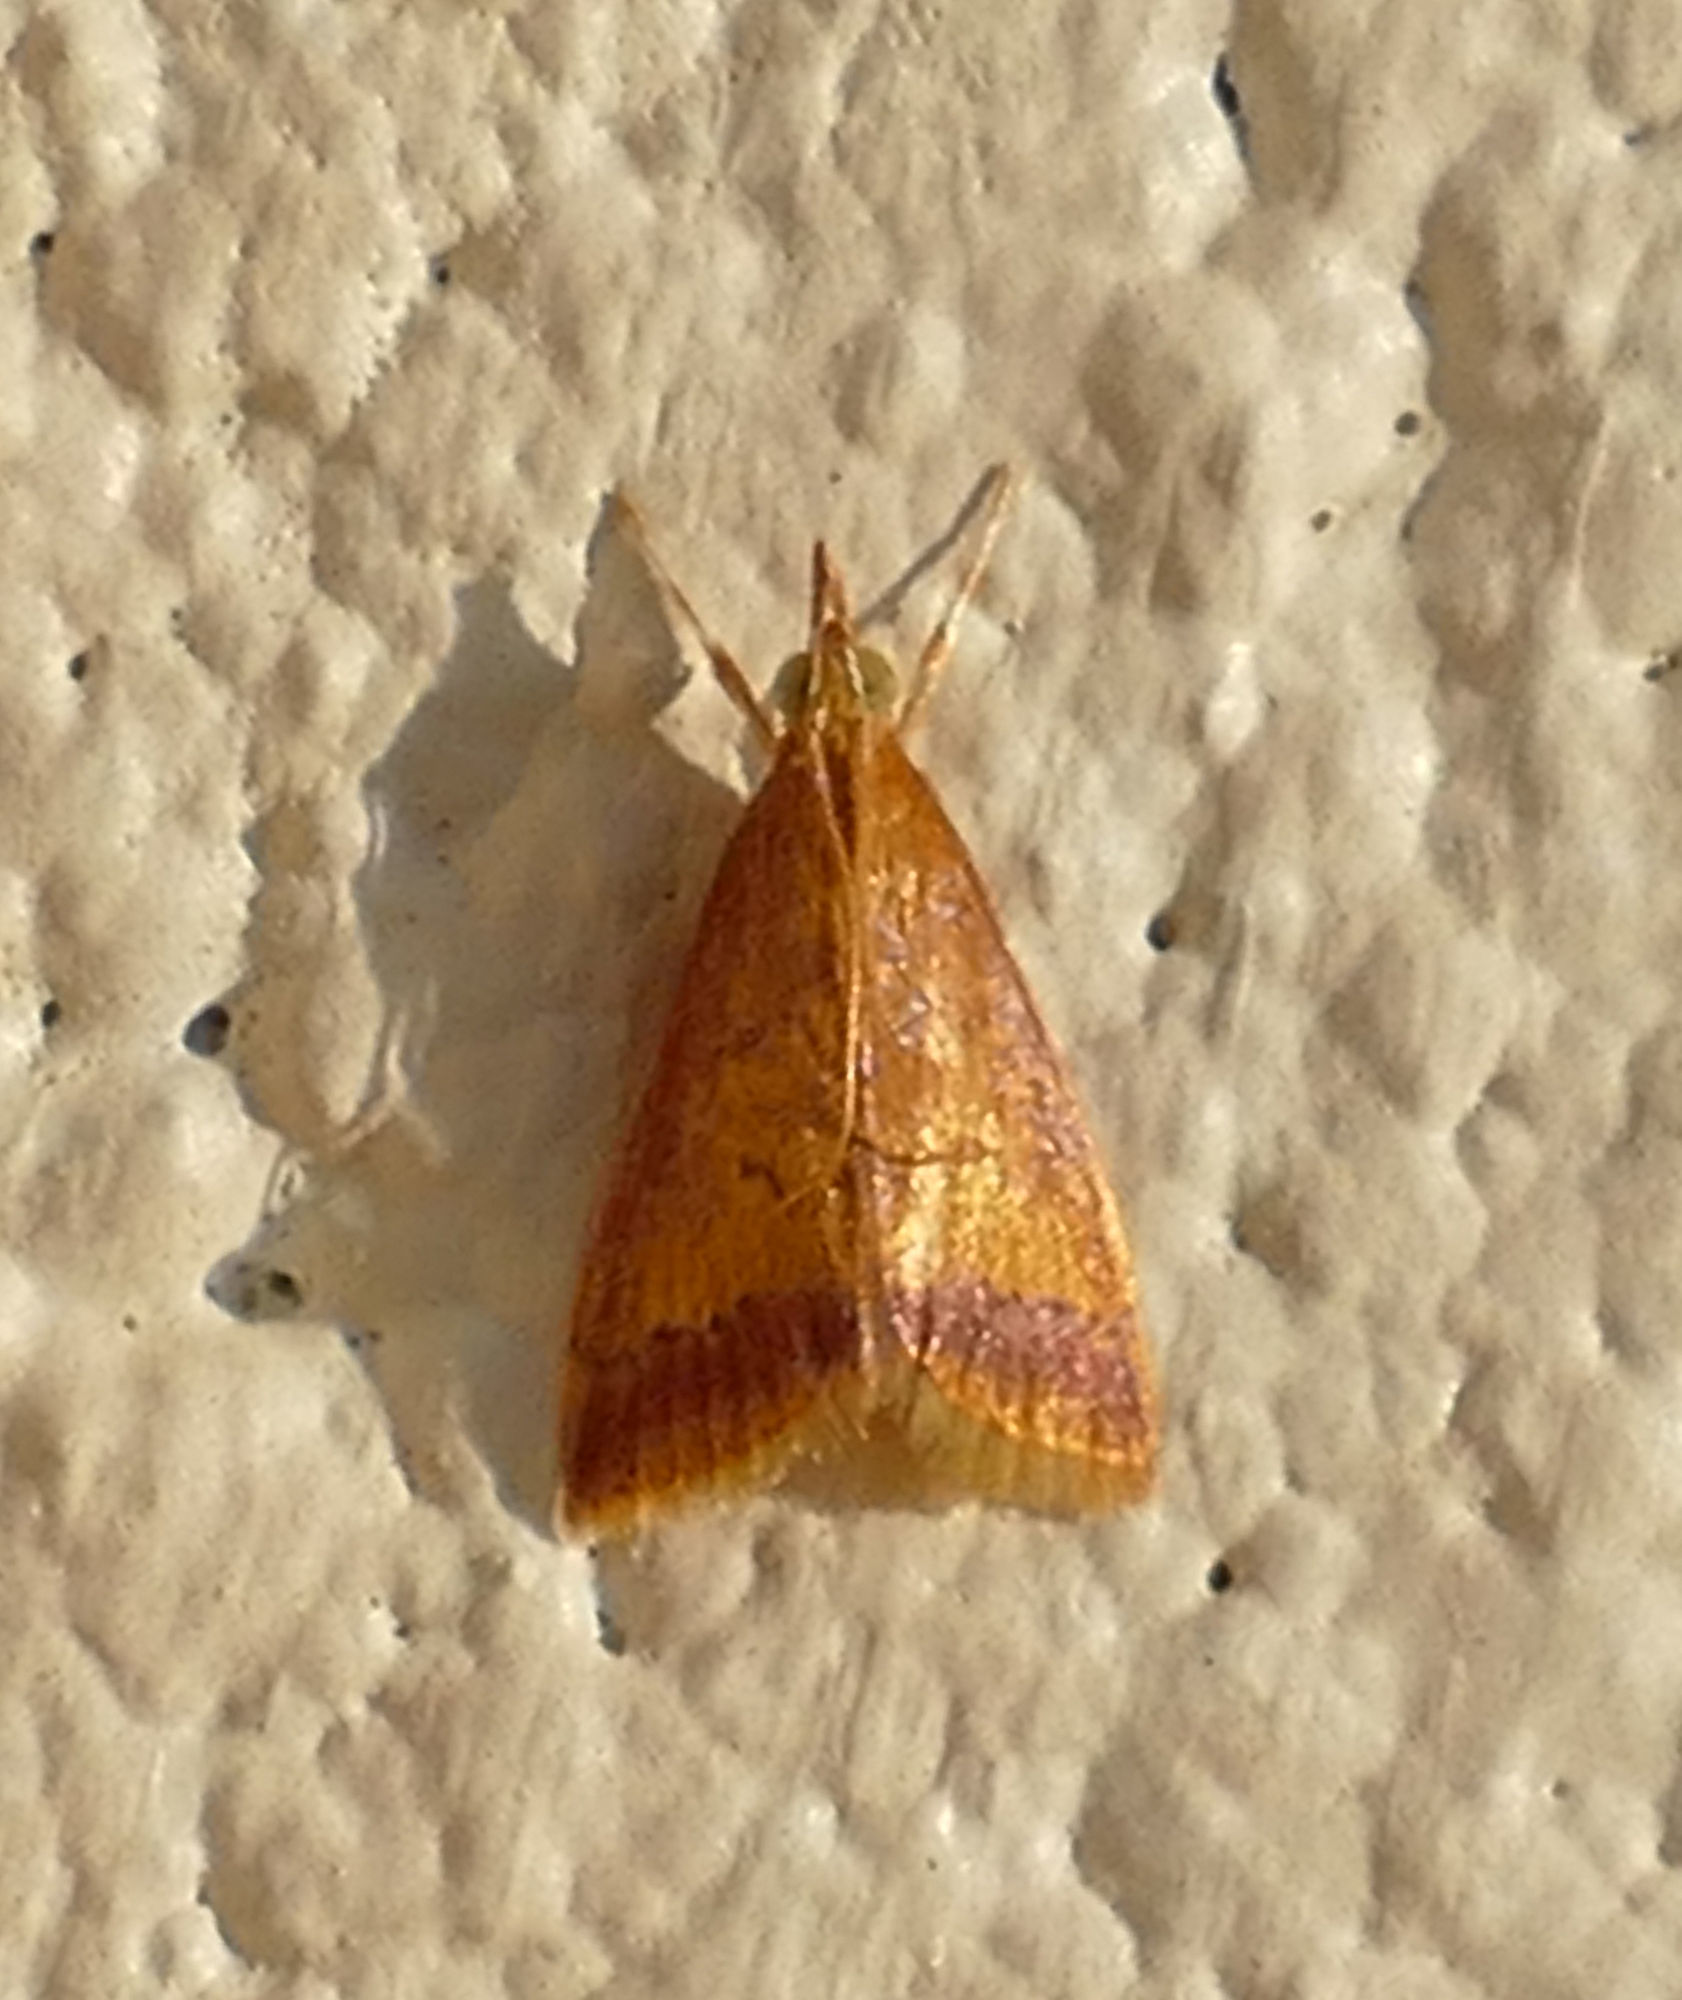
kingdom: Animalia
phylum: Arthropoda
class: Insecta
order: Lepidoptera
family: Crambidae
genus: Hyalorista
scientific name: Hyalorista taeniolalis
